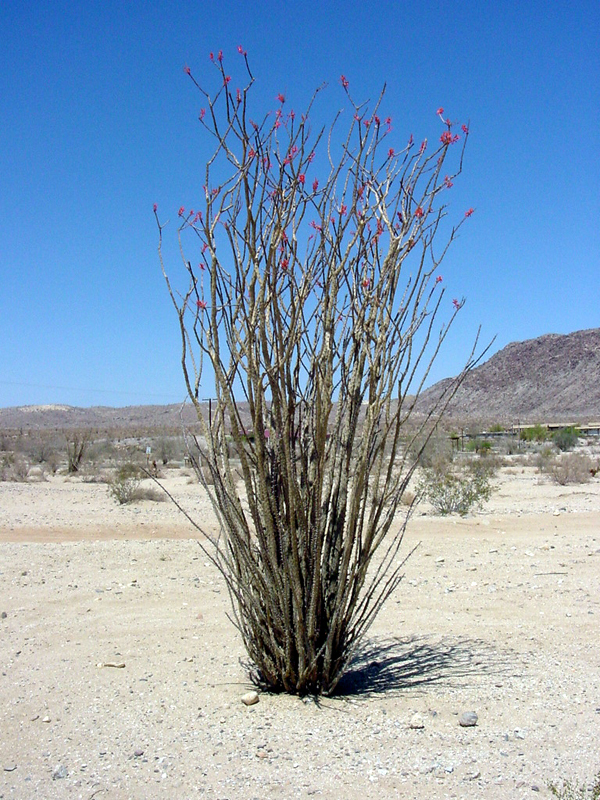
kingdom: Plantae
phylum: Tracheophyta
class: Magnoliopsida
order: Ericales
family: Fouquieriaceae
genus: Fouquieria
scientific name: Fouquieria splendens
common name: Vine-cactus
